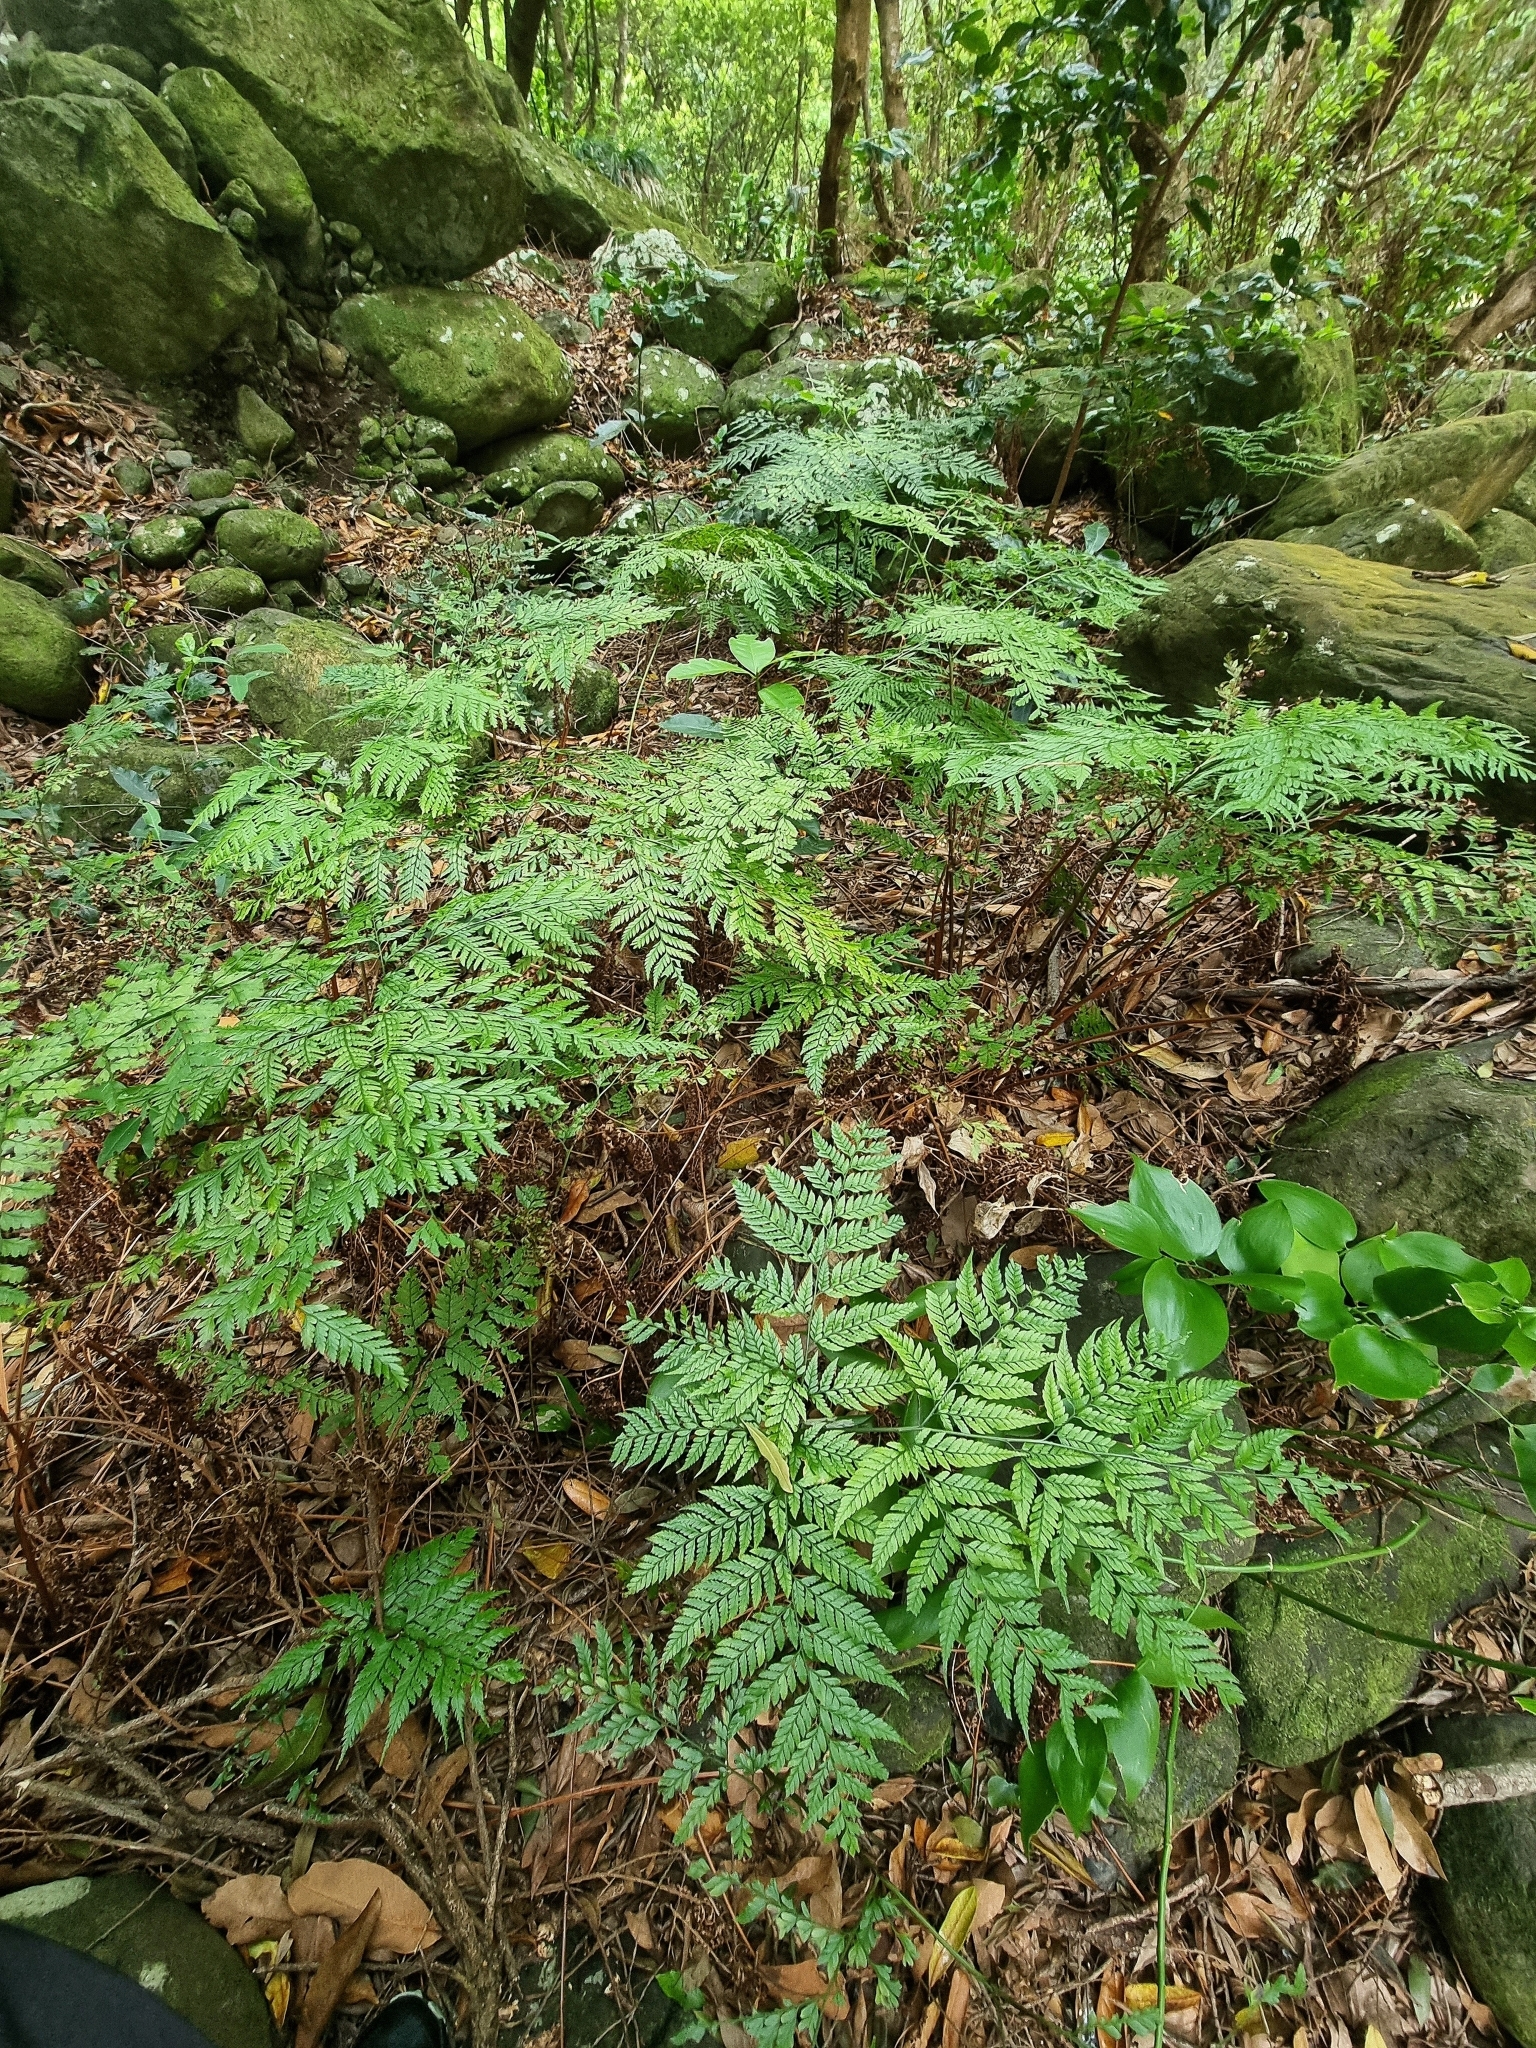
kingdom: Plantae
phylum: Tracheophyta
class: Polypodiopsida
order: Polypodiales
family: Dryopteridaceae
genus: Arachniodes
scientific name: Arachniodes webbiana
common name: Madeira holly fern
